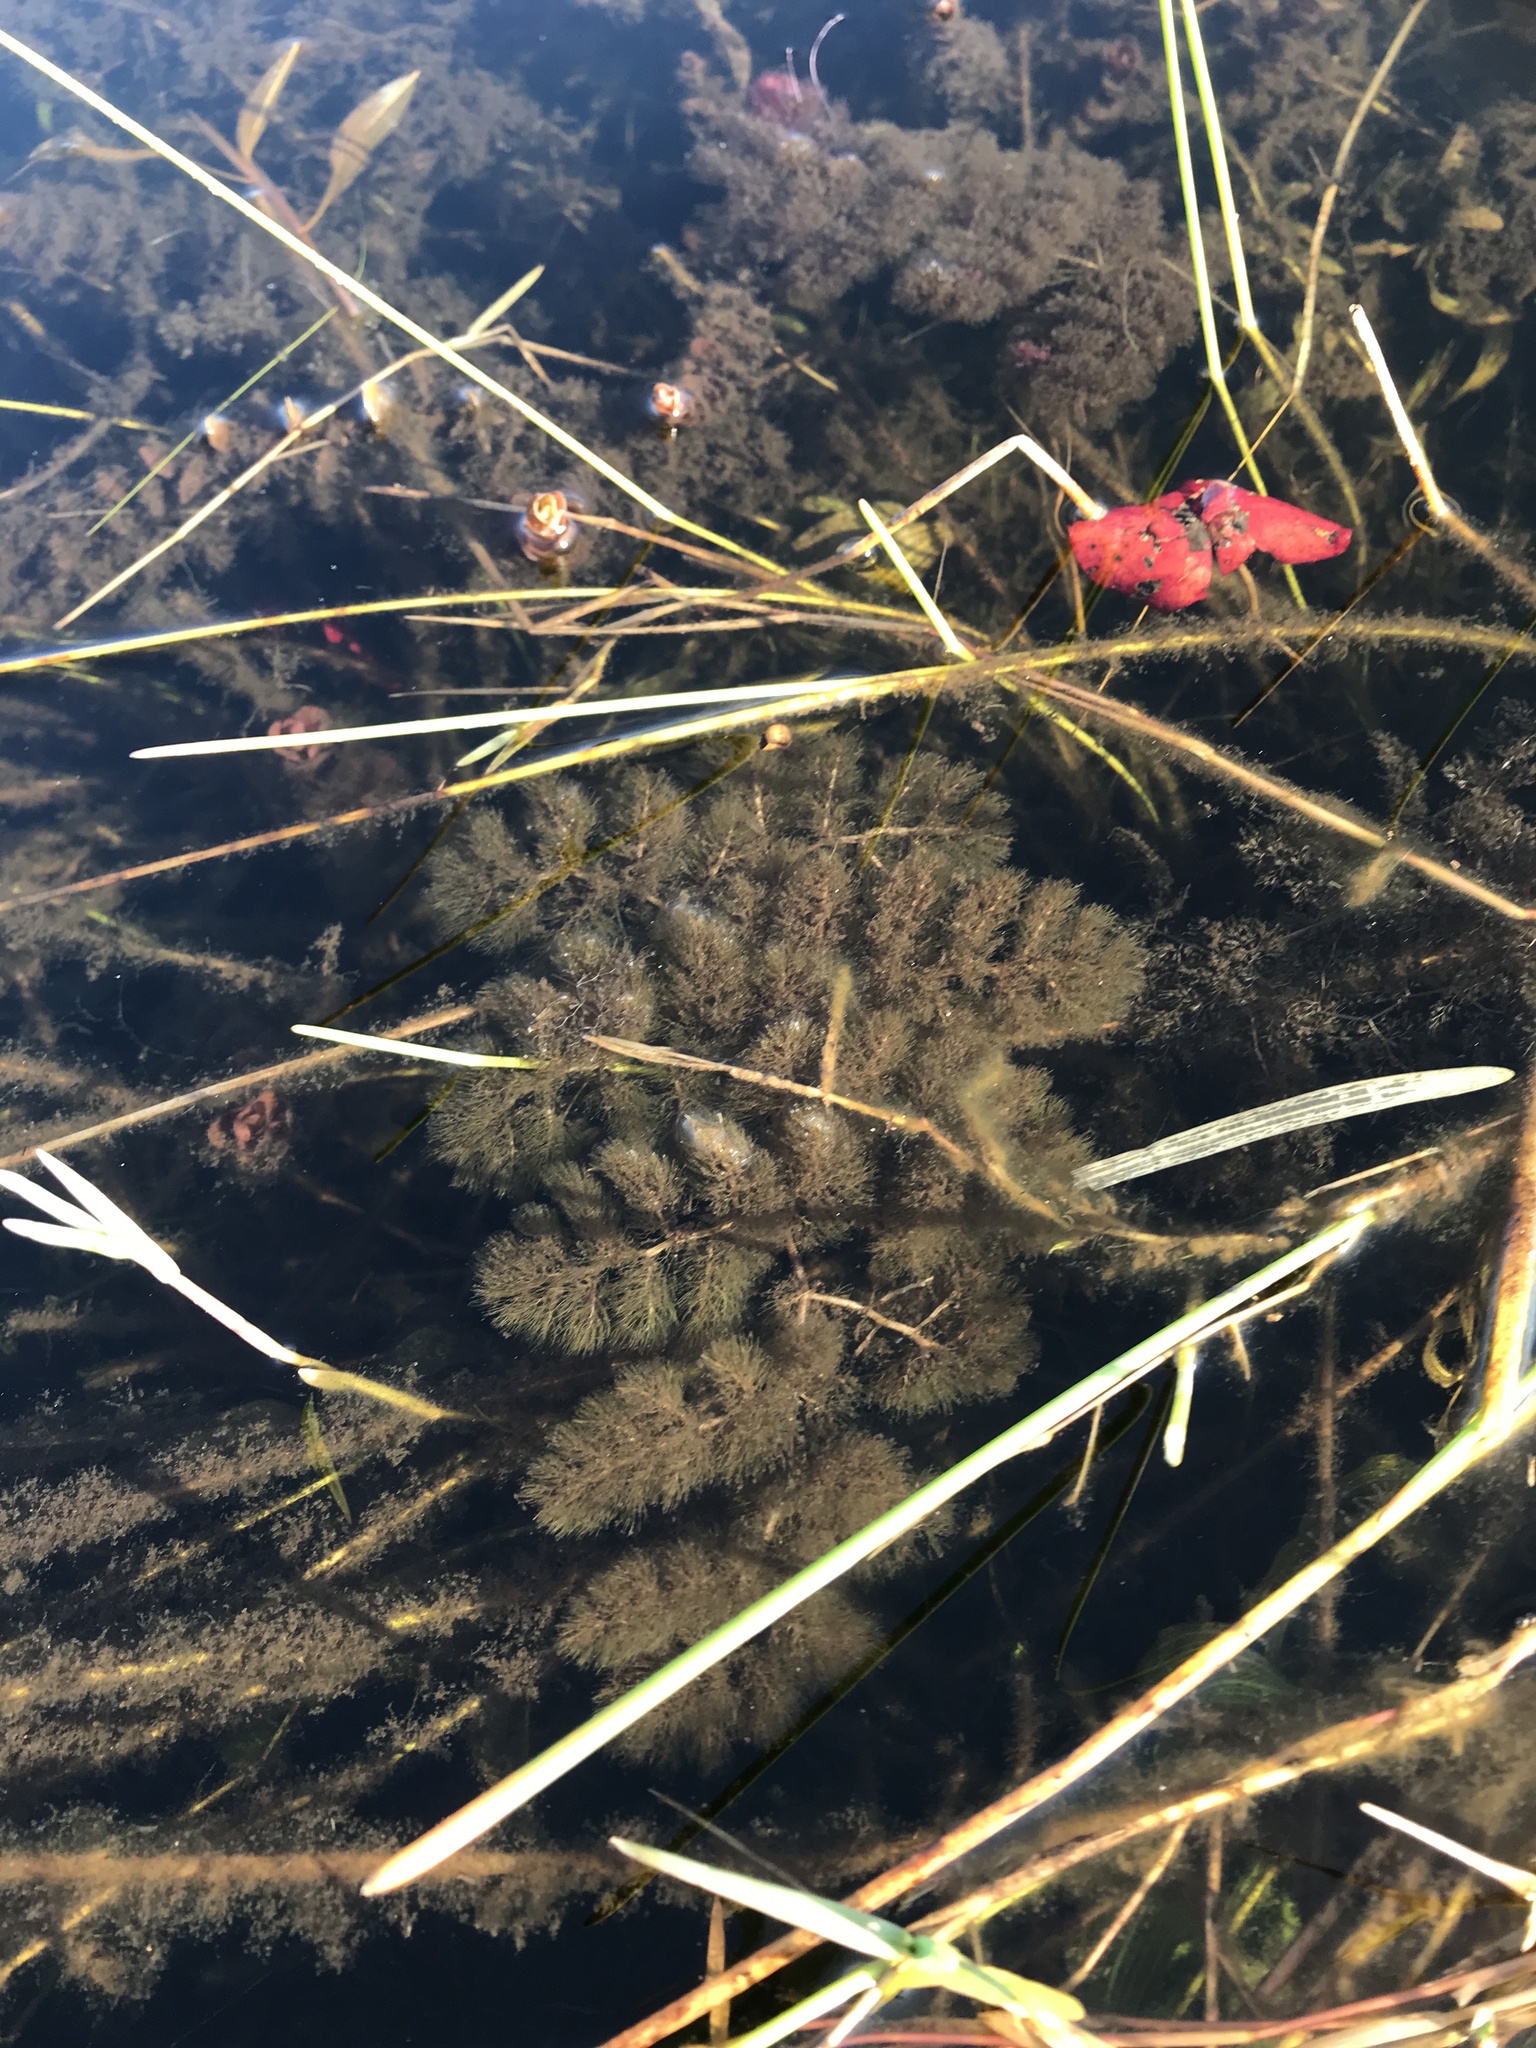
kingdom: Plantae
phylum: Tracheophyta
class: Magnoliopsida
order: Lamiales
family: Lentibulariaceae
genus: Utricularia
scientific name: Utricularia foliosa
